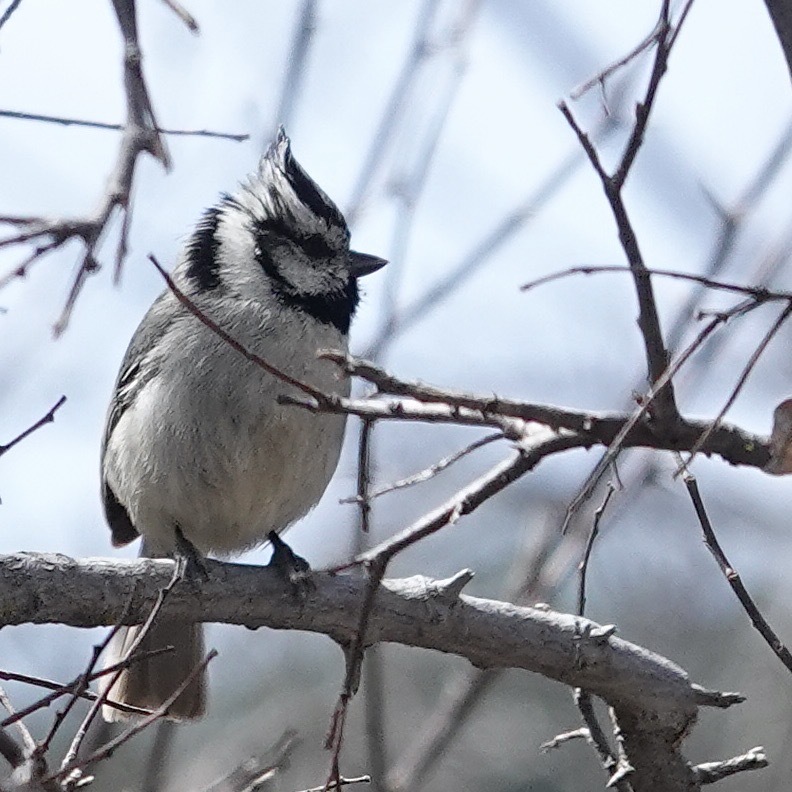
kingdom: Animalia
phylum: Chordata
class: Aves
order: Passeriformes
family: Paridae
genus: Baeolophus
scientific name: Baeolophus wollweberi
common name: Bridled titmouse
